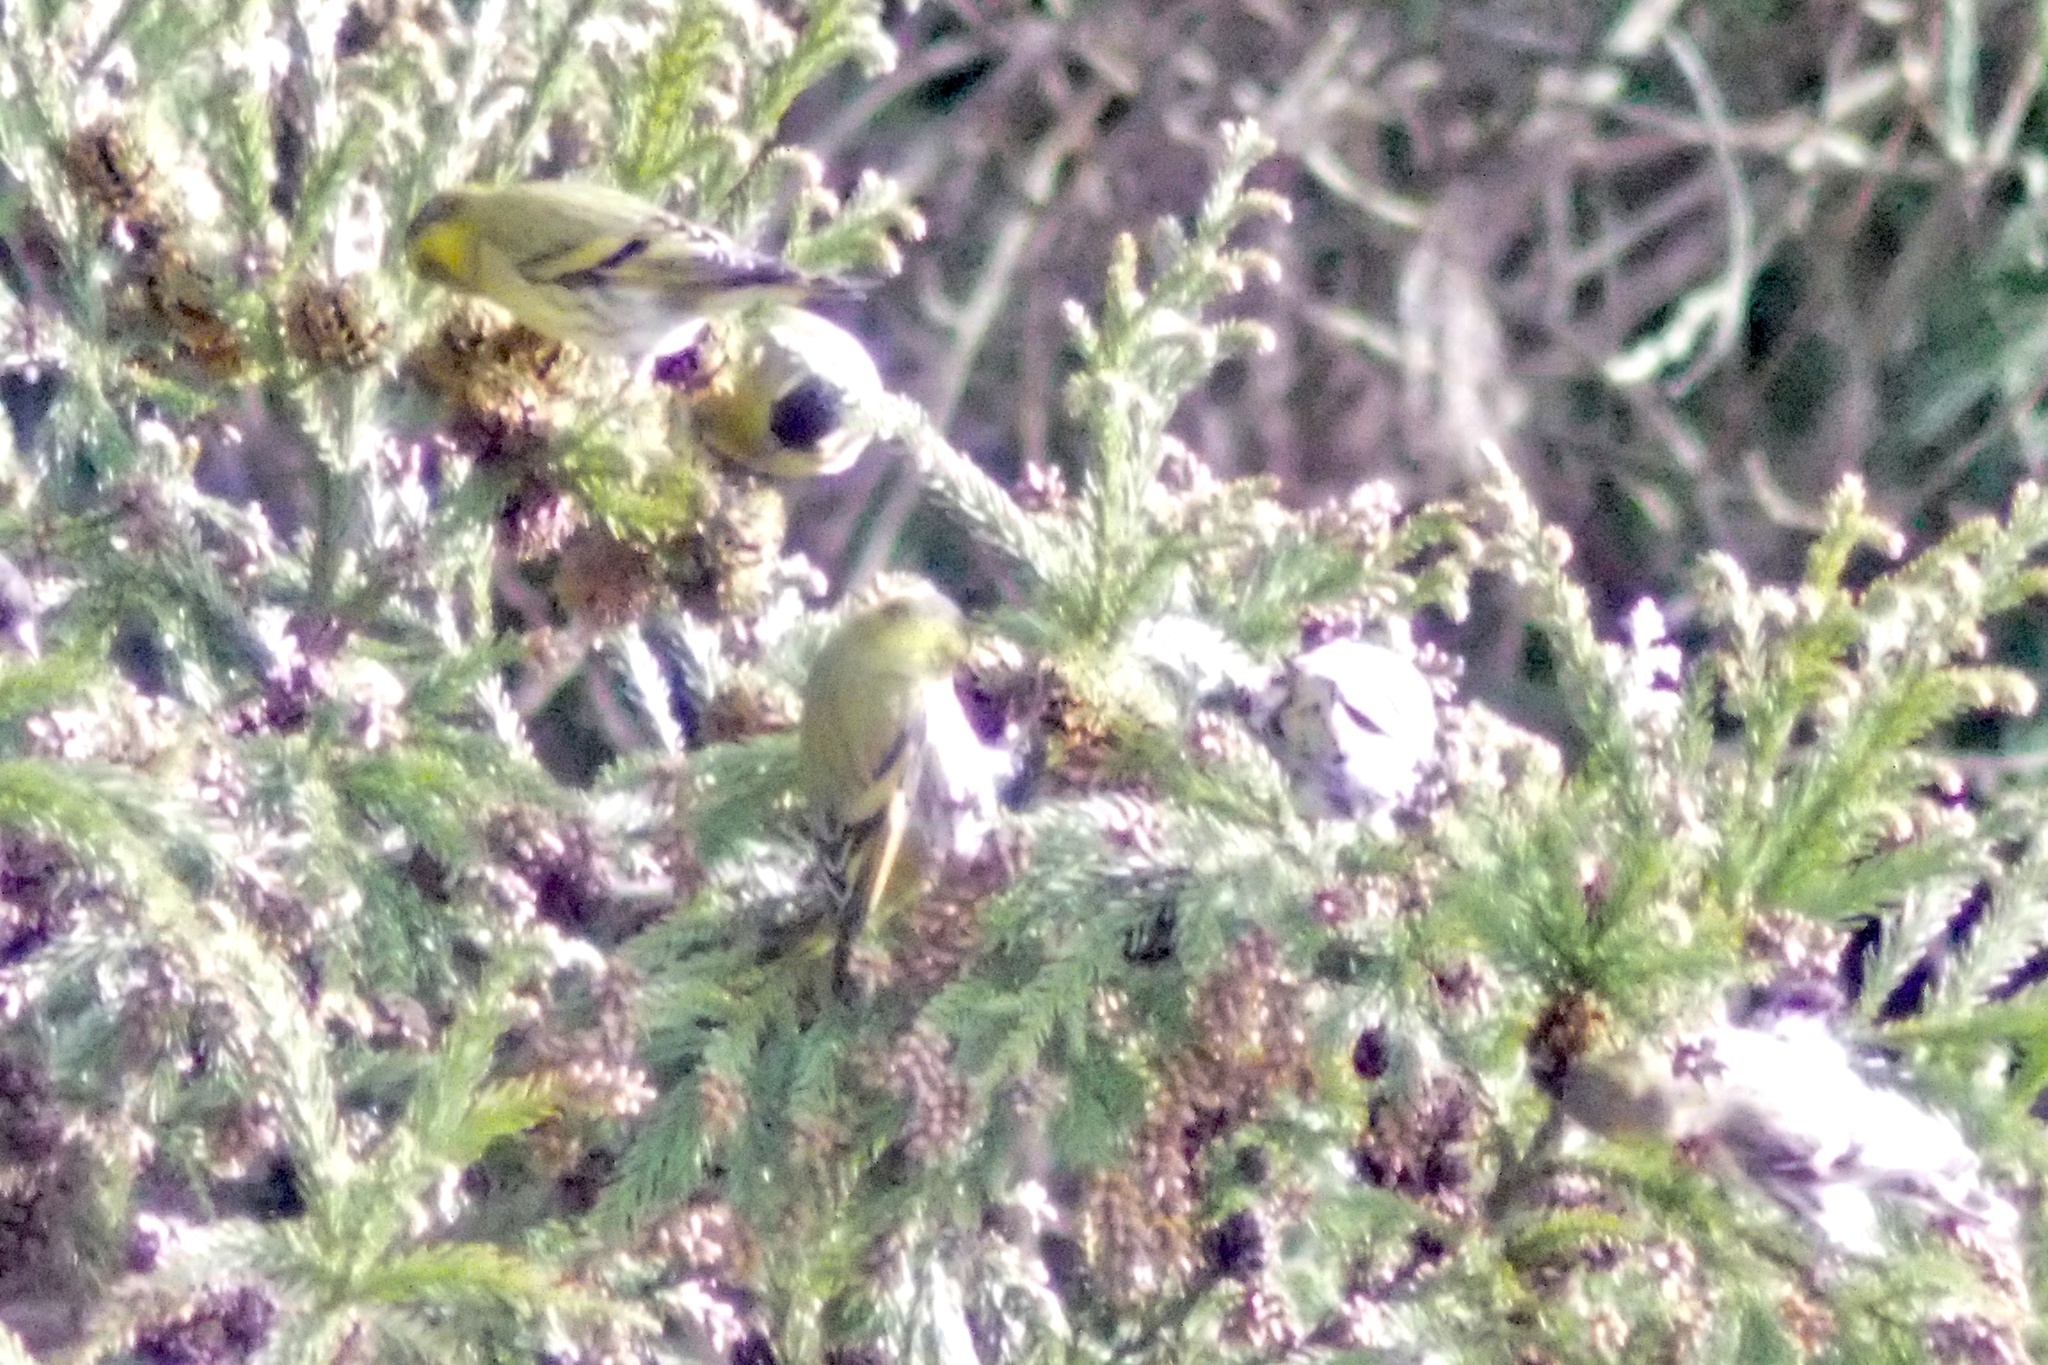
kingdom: Animalia
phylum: Chordata
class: Aves
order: Passeriformes
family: Fringillidae
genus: Spinus
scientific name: Spinus spinus
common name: Eurasian siskin
